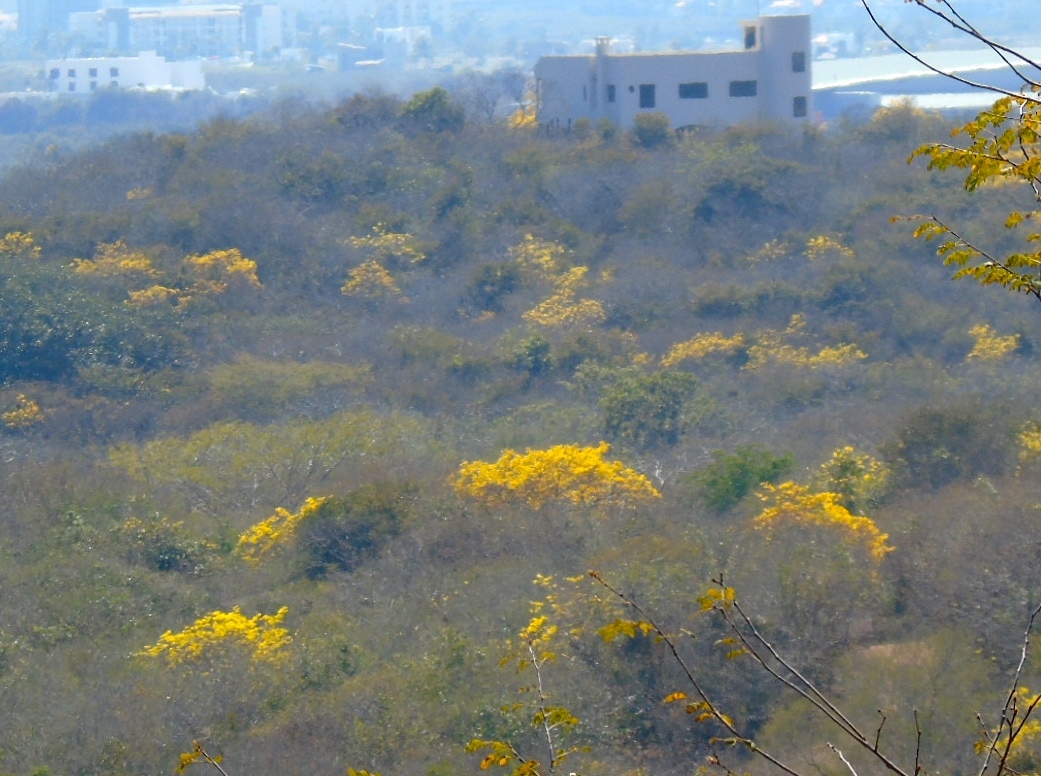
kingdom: Plantae
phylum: Tracheophyta
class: Magnoliopsida
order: Lamiales
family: Bignoniaceae
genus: Handroanthus
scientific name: Handroanthus chrysanthus
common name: Trumpet trees
